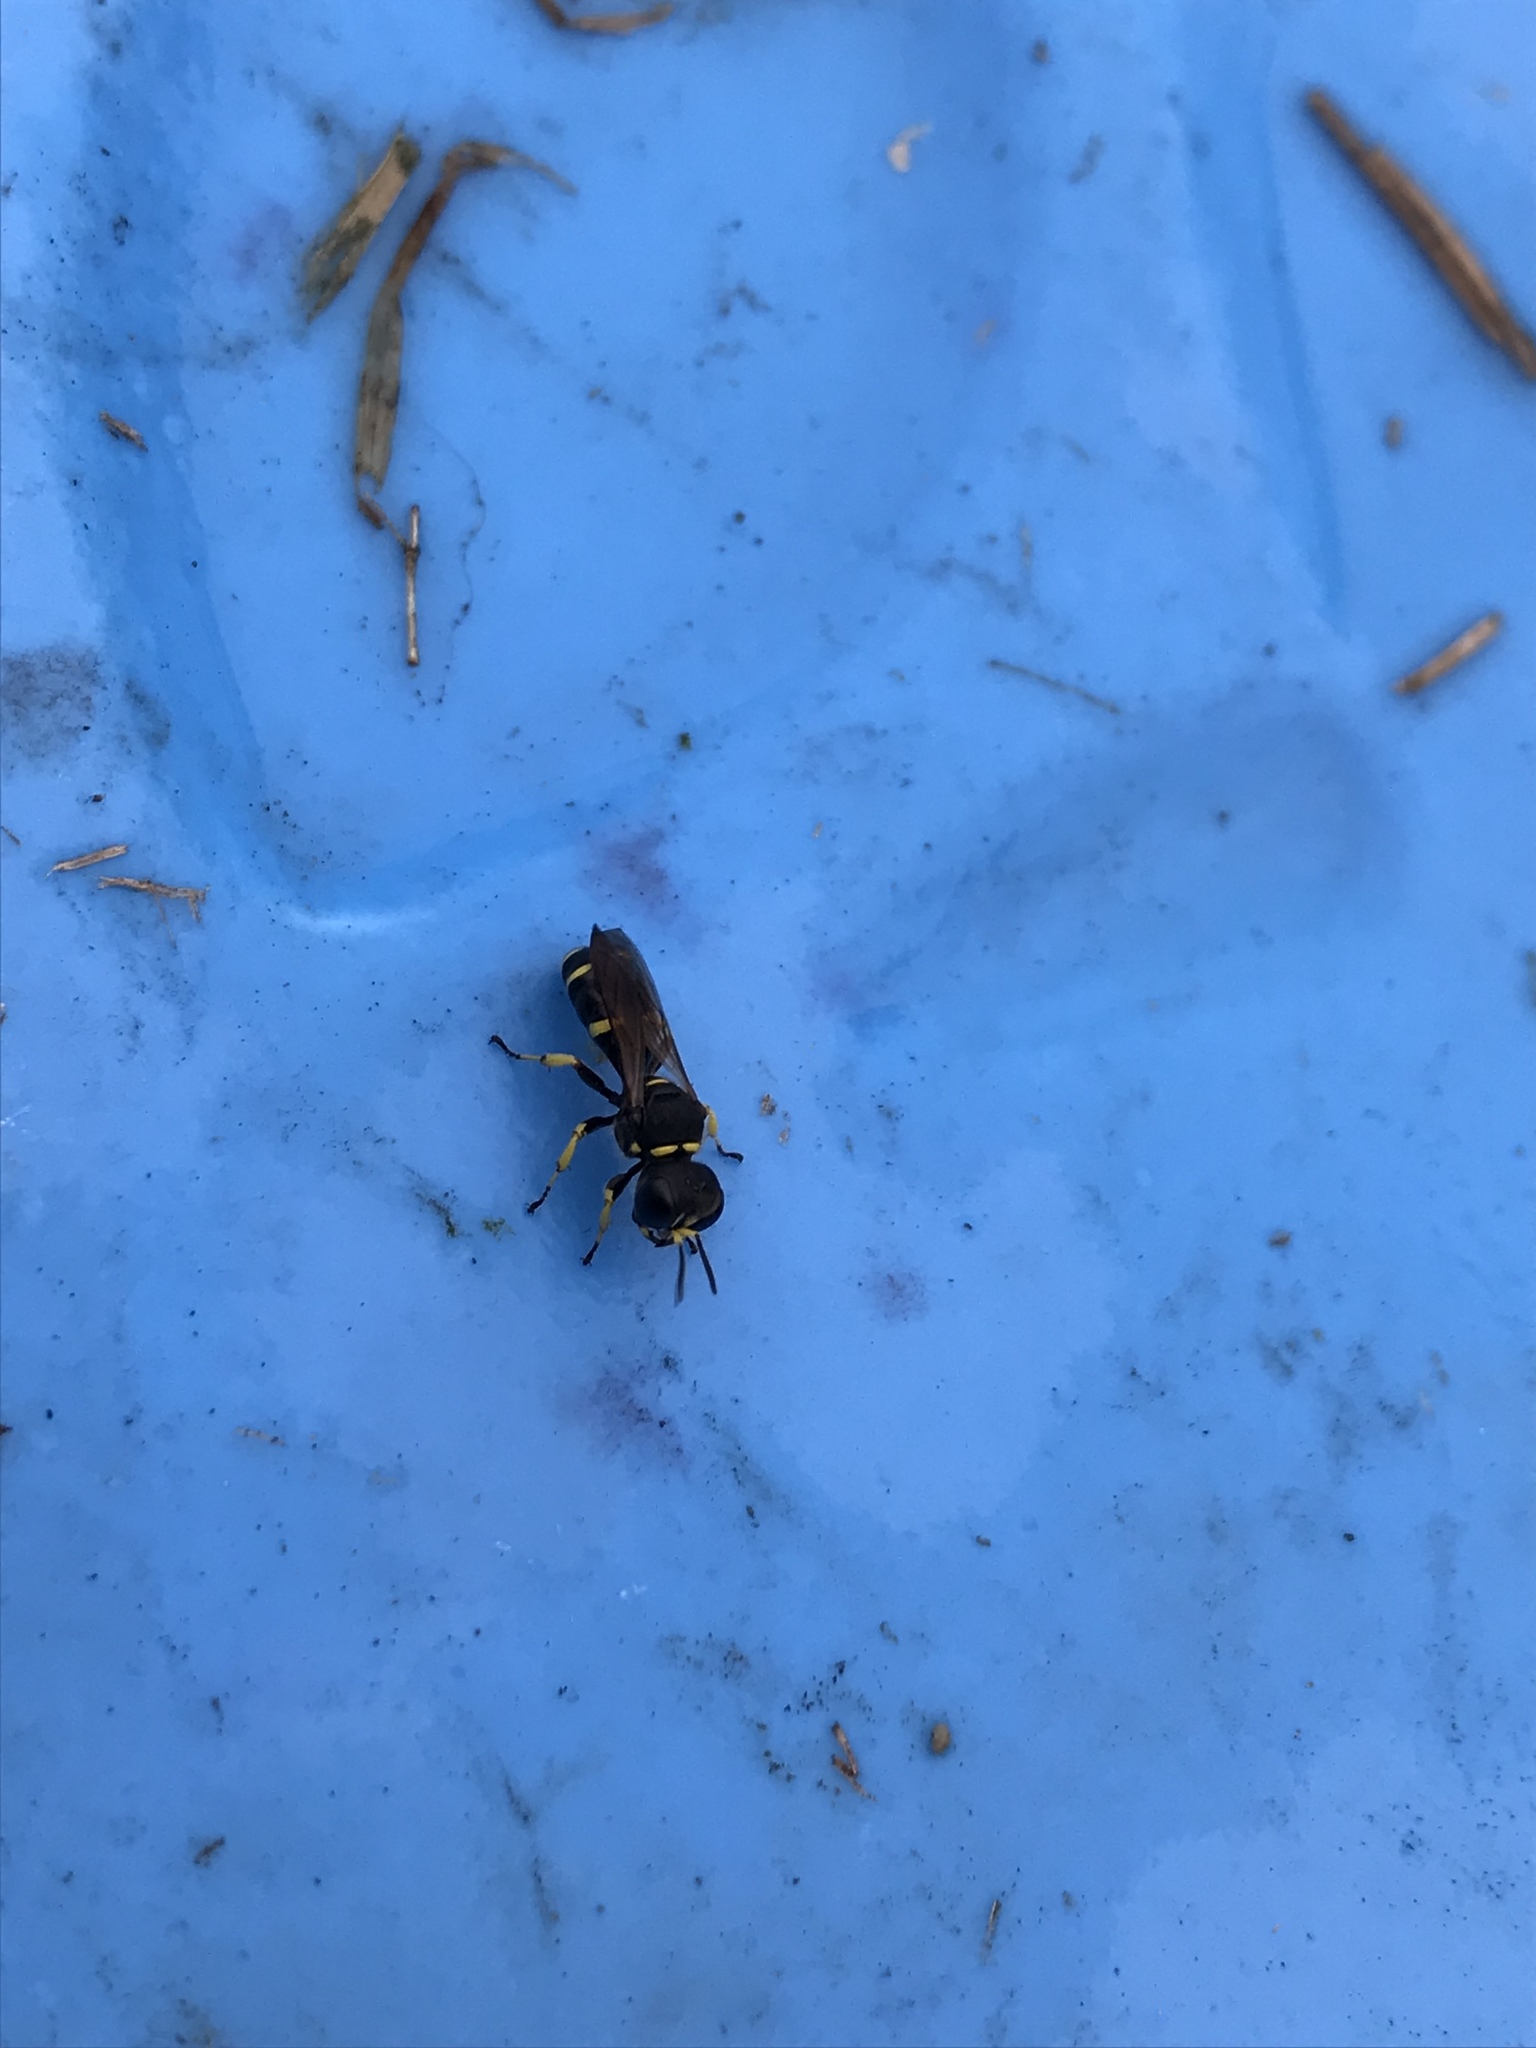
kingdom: Animalia
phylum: Arthropoda
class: Insecta
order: Hymenoptera
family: Crabronidae
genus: Ectemnius
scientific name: Ectemnius continuus
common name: Common ectemnius
